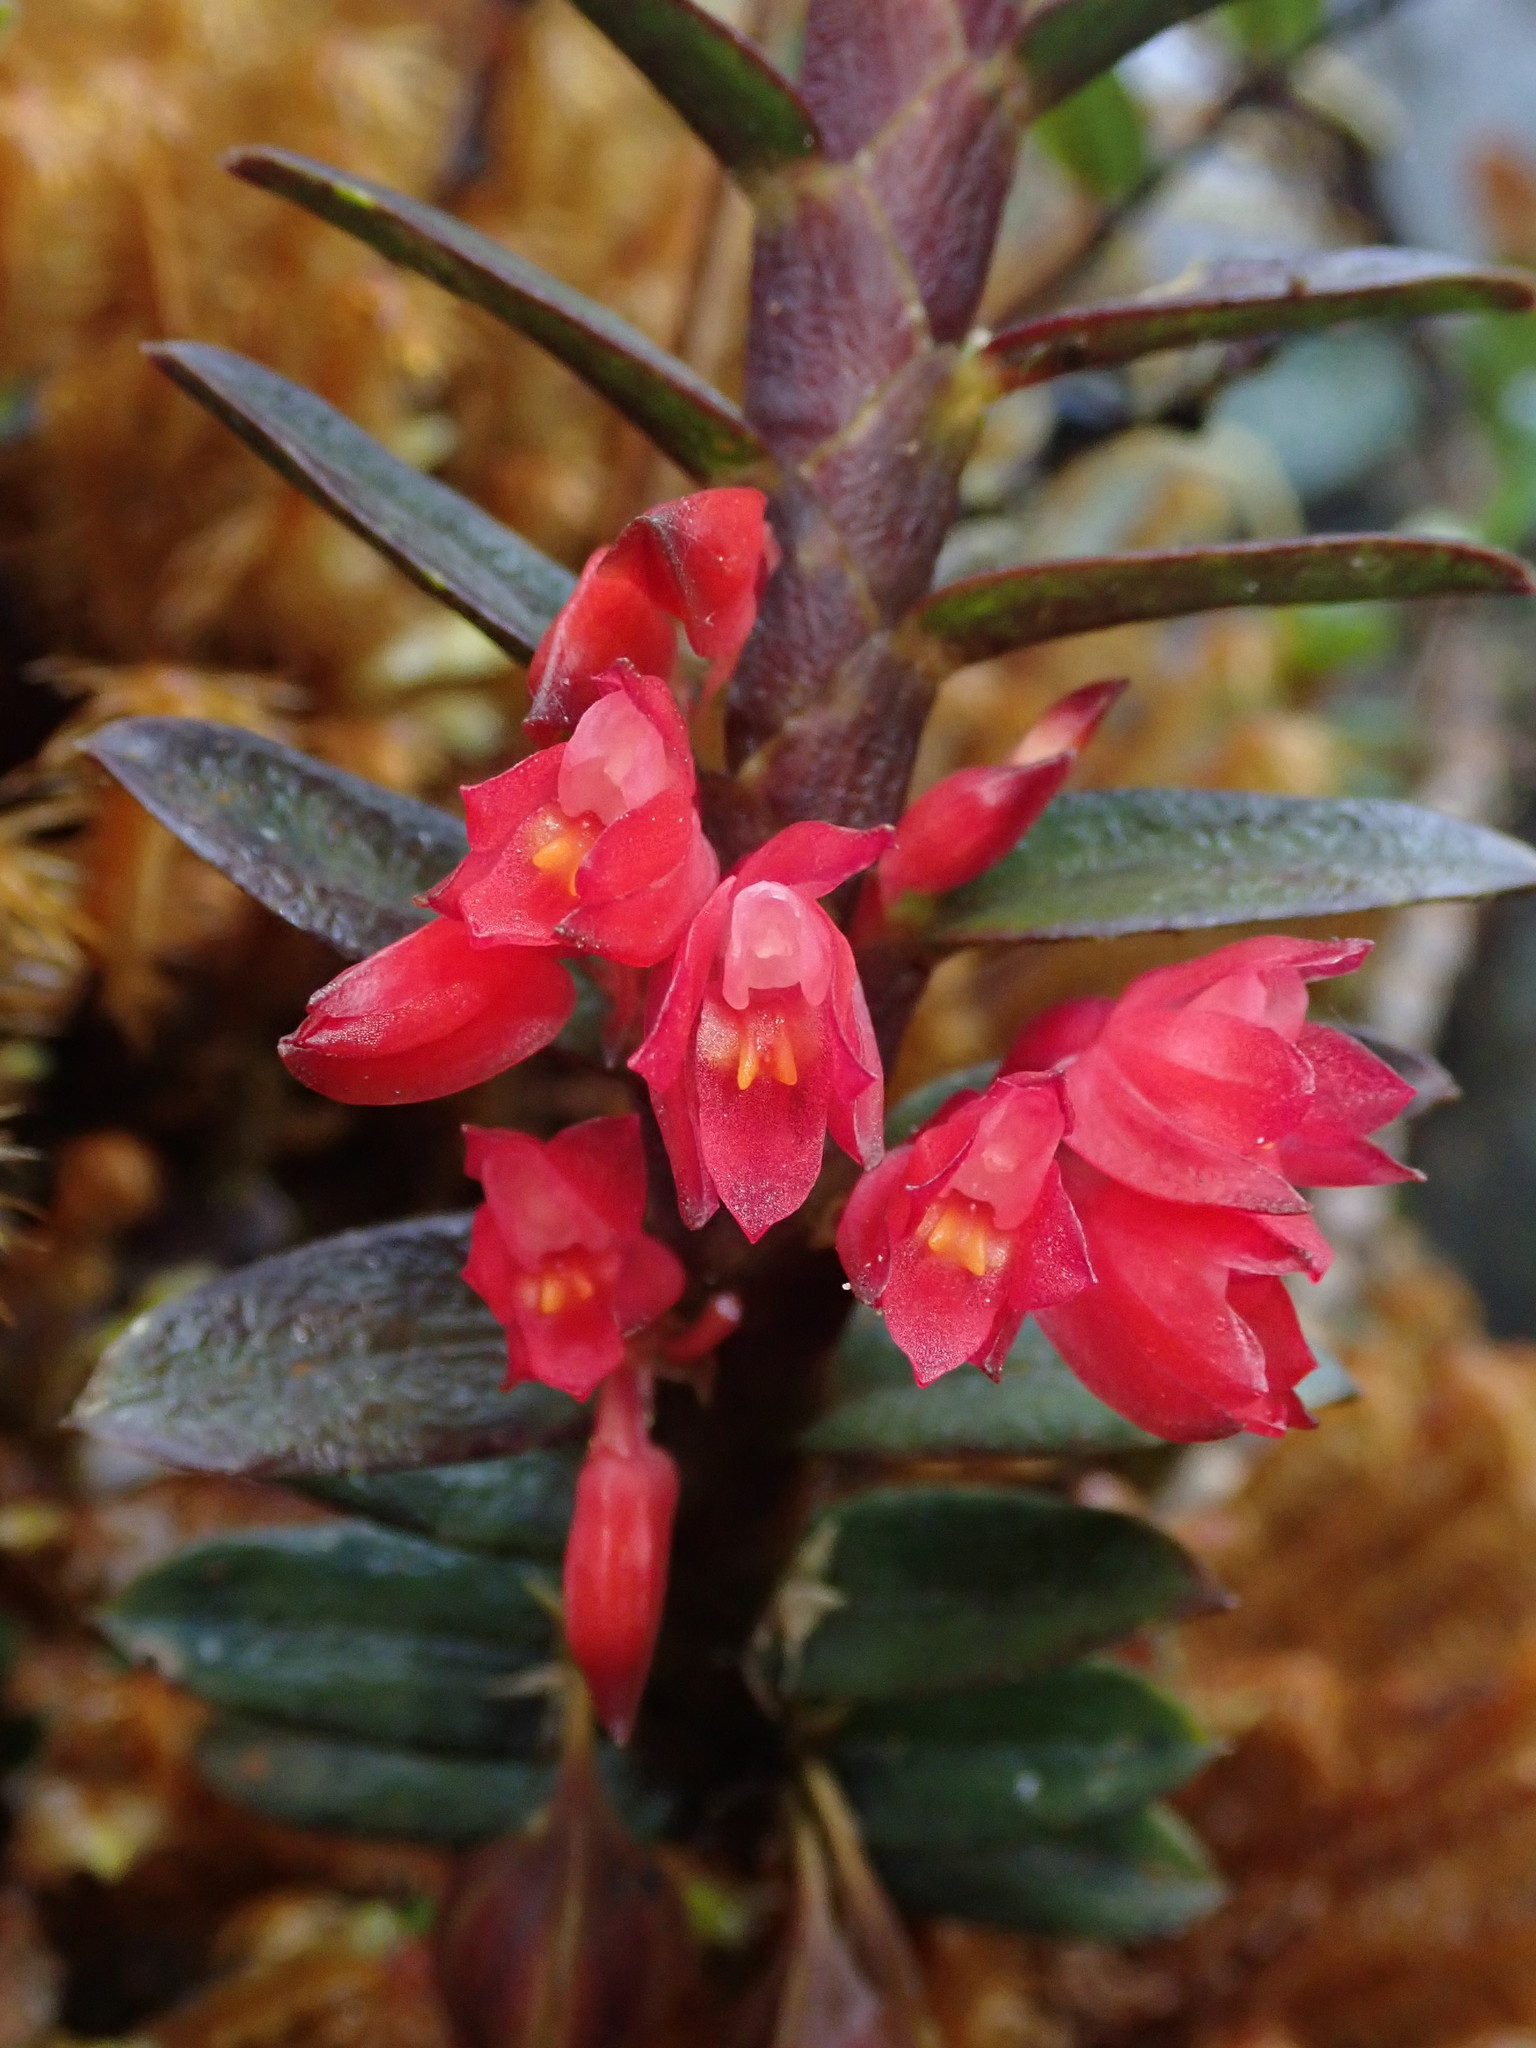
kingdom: Plantae
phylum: Tracheophyta
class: Liliopsida
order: Asparagales
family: Orchidaceae
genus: Fernandezia
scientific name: Fernandezia sanguinea
